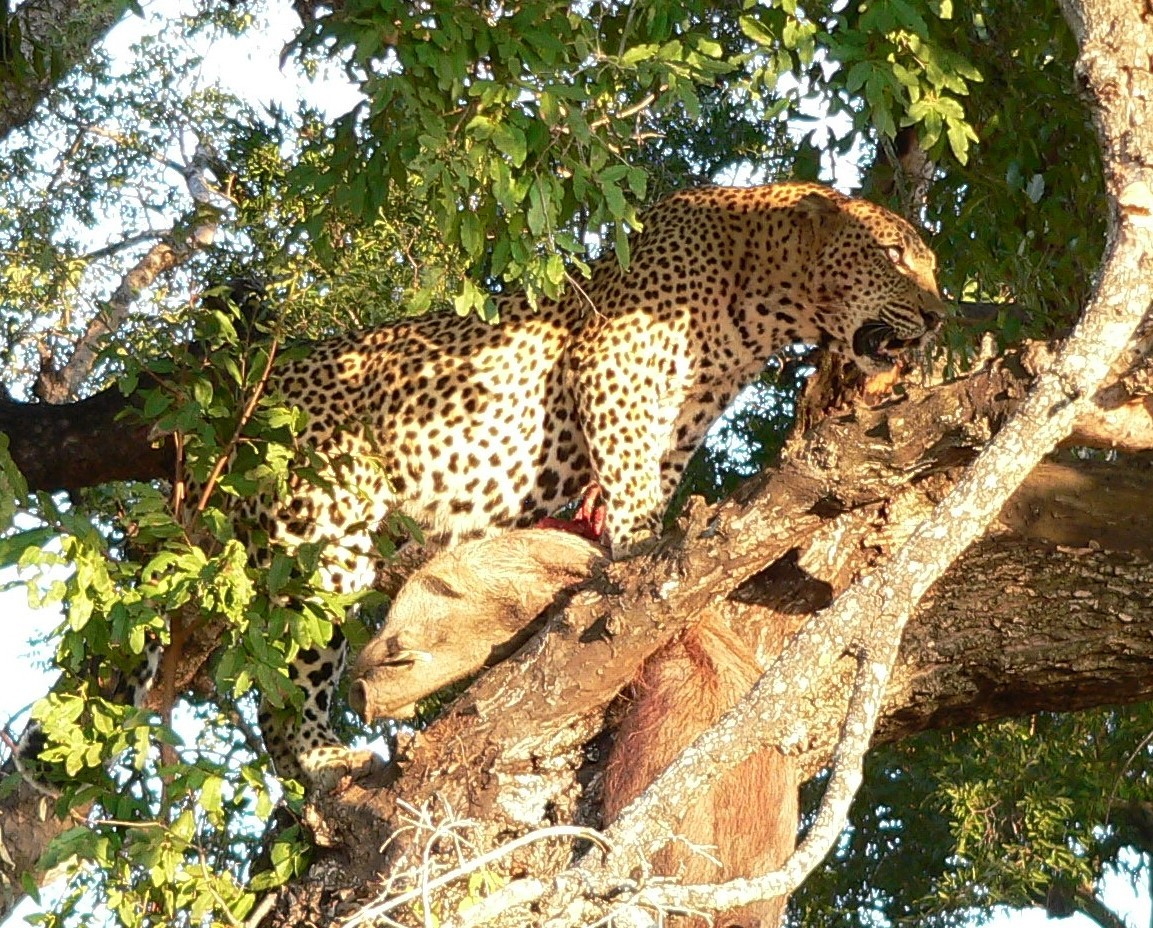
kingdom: Animalia
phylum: Chordata
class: Mammalia
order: Carnivora
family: Felidae
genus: Panthera
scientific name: Panthera pardus
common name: Leopard
